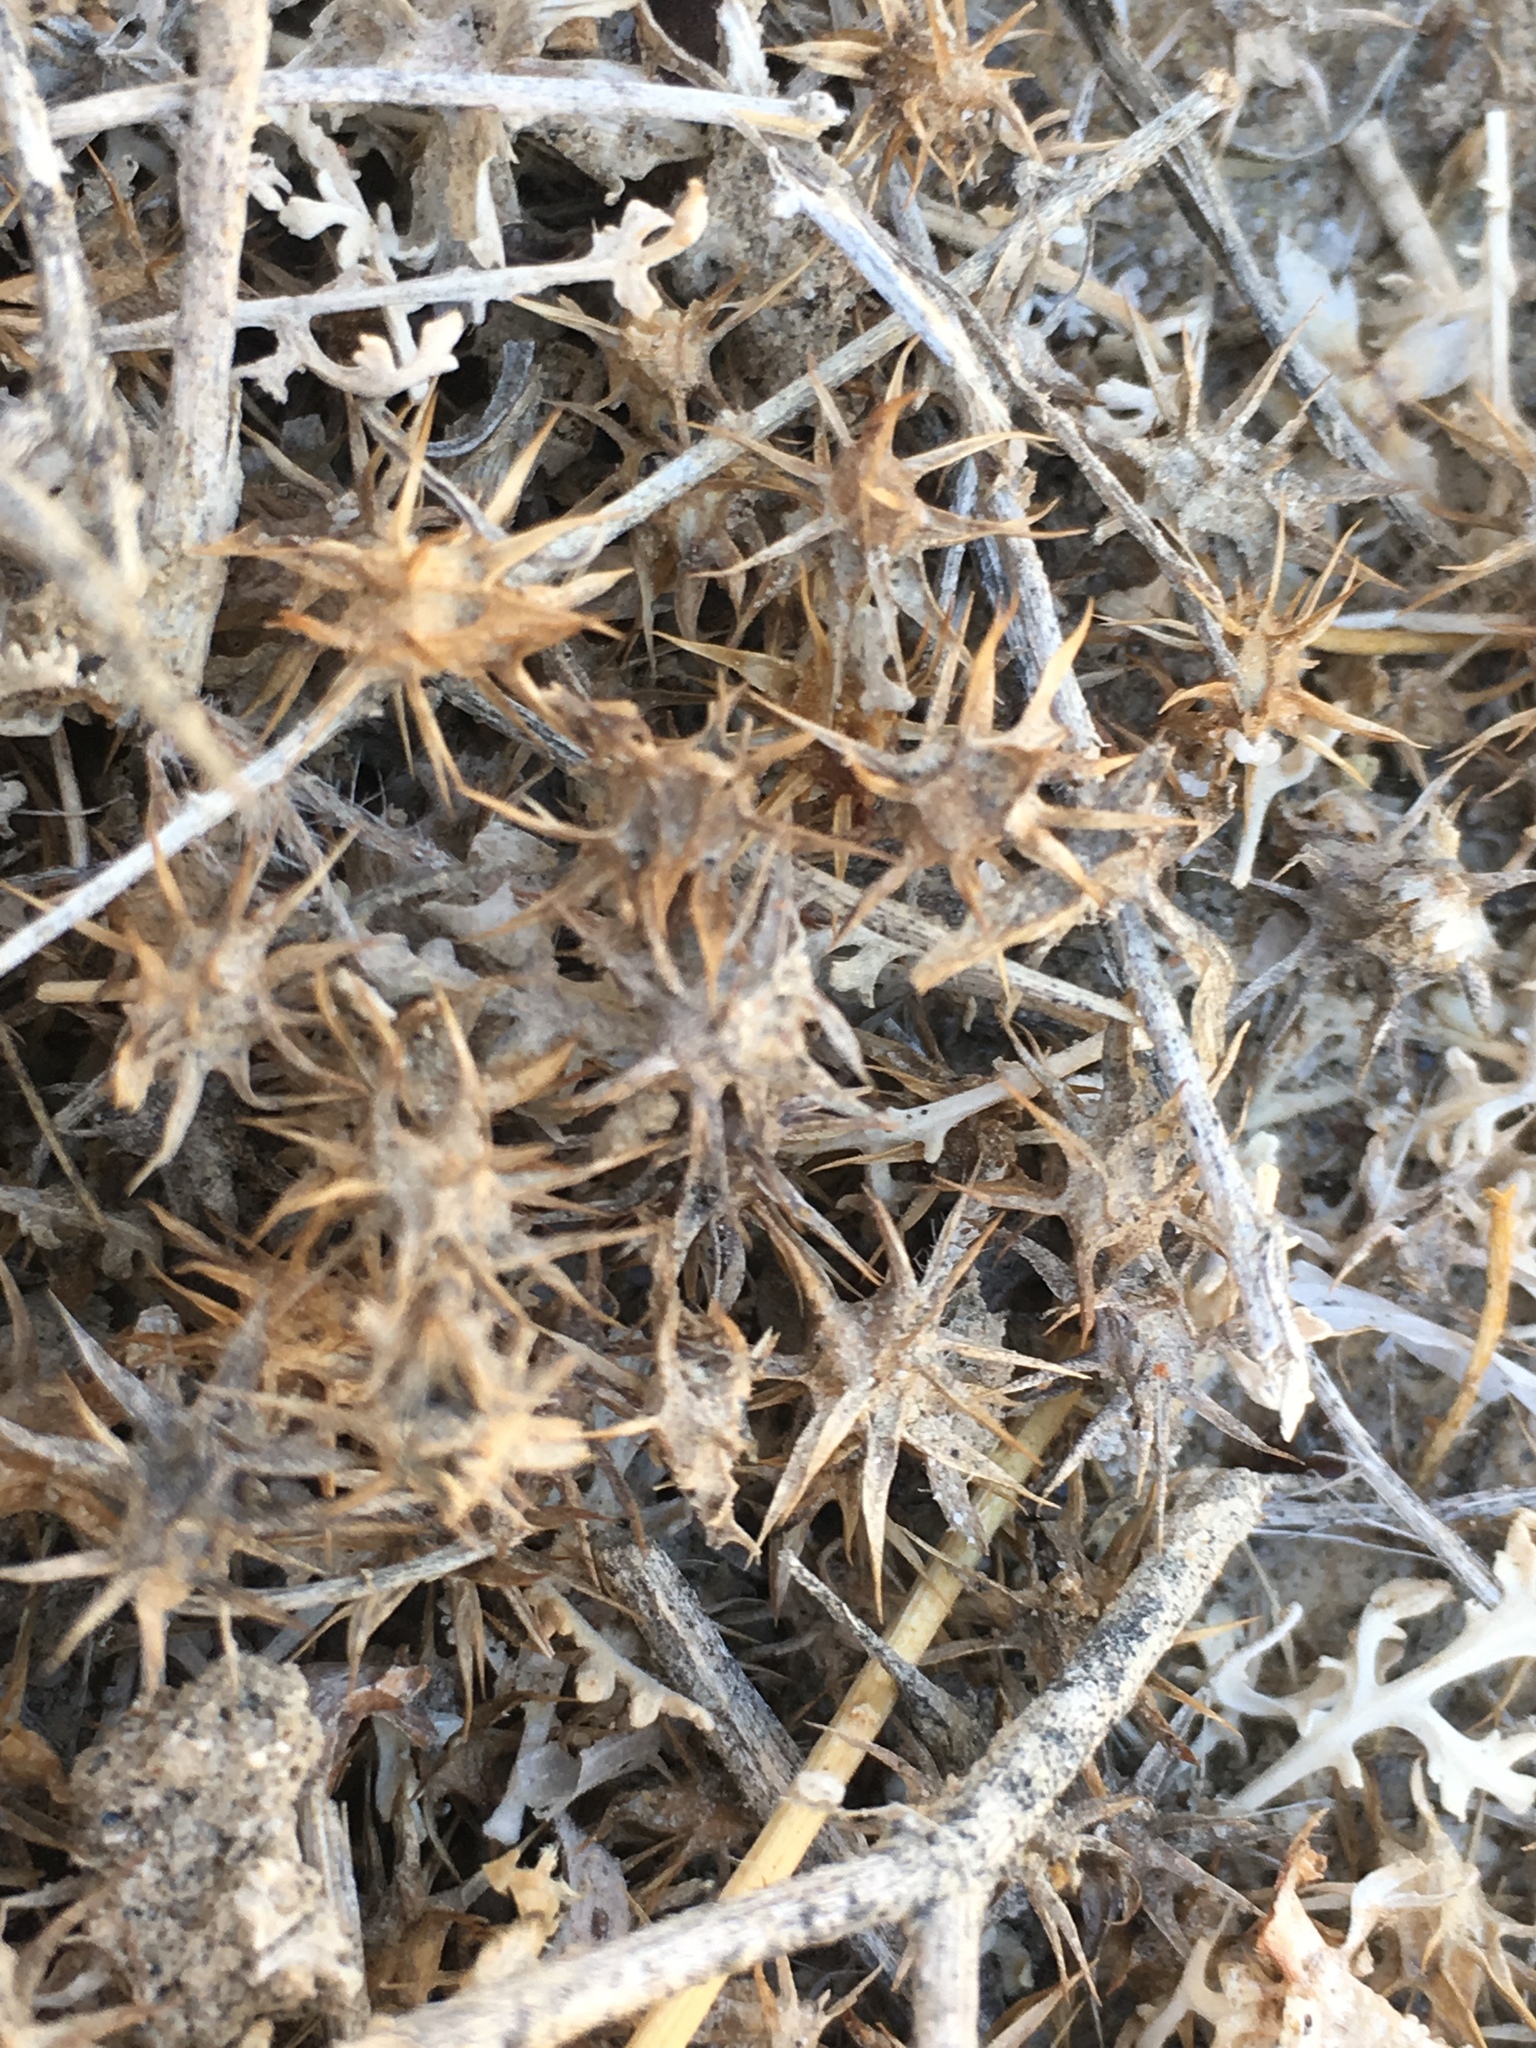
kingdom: Plantae
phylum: Tracheophyta
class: Magnoliopsida
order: Asterales
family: Asteraceae
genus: Ambrosia
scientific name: Ambrosia dumosa
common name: Bur-sage
